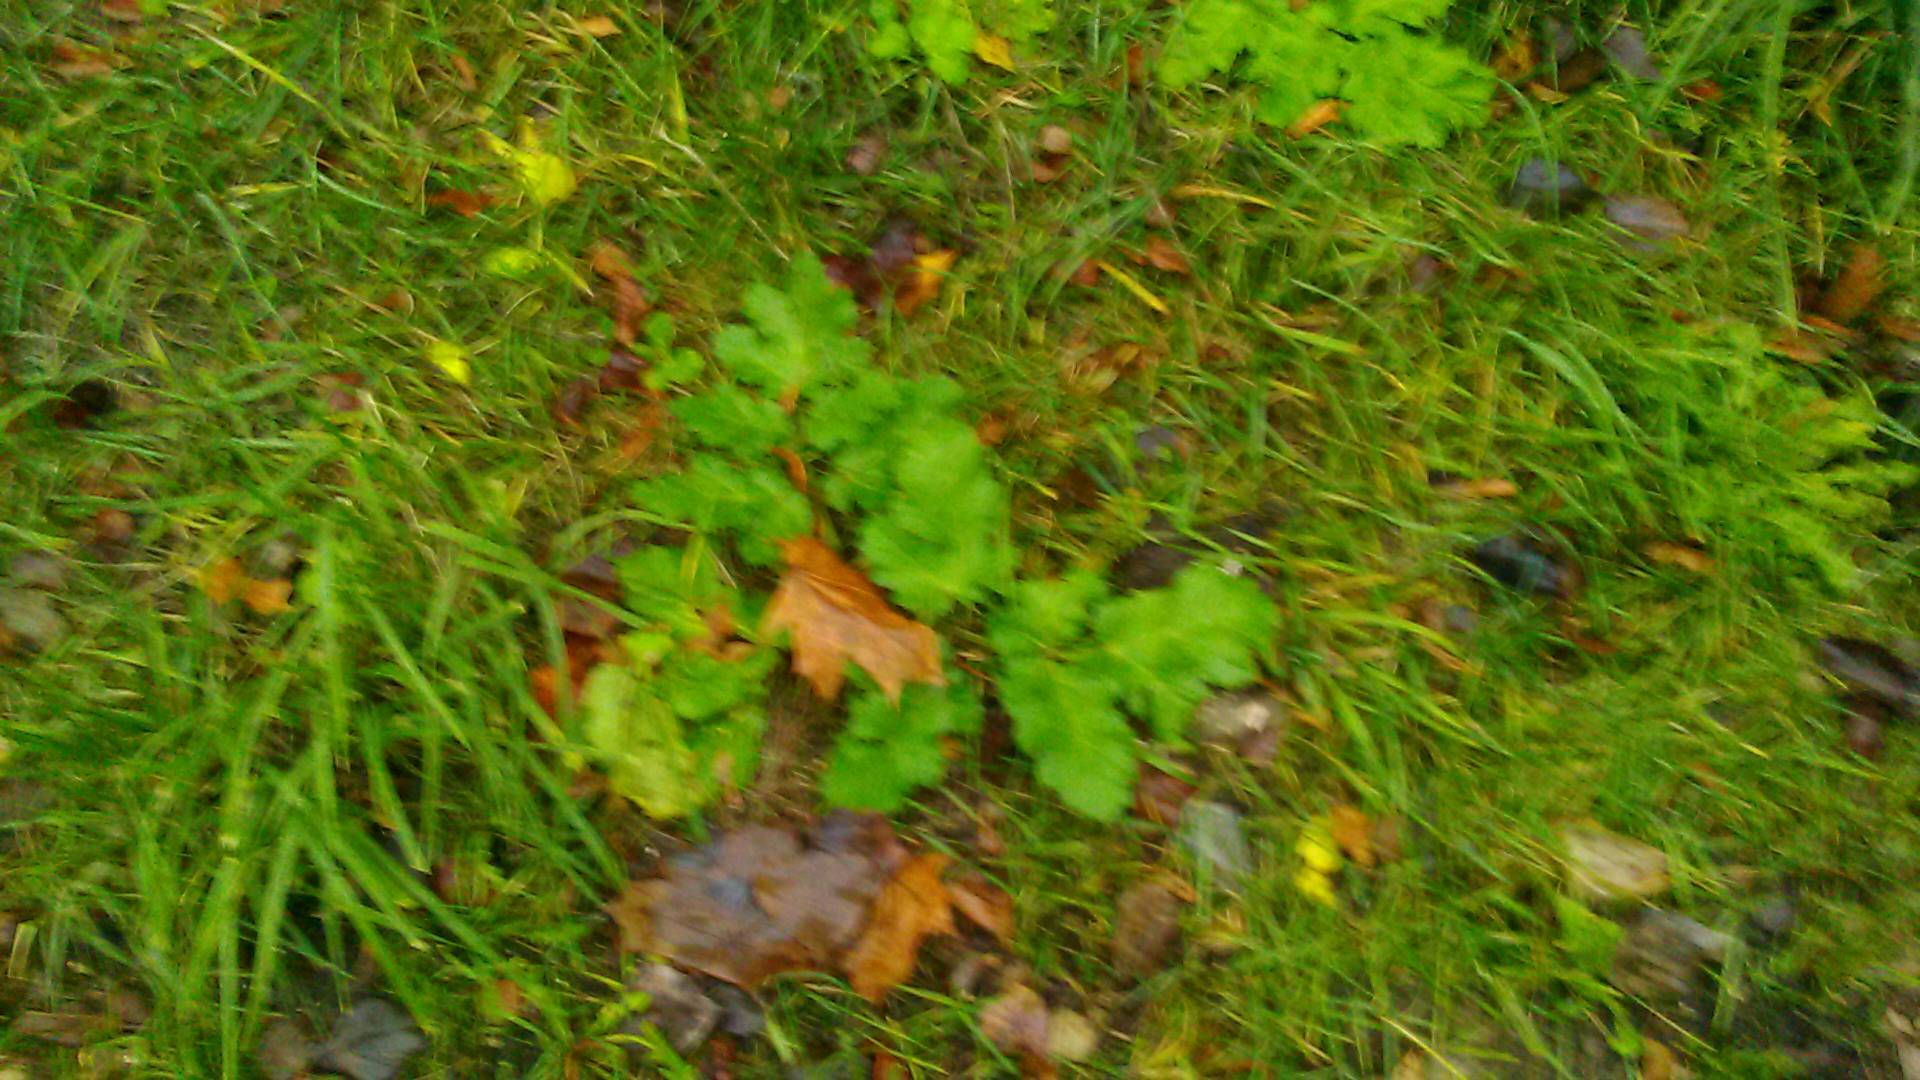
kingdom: Plantae
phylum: Tracheophyta
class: Magnoliopsida
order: Apiales
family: Apiaceae
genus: Heracleum
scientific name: Heracleum sosnowskyi
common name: Sosnowsky's hogweed
